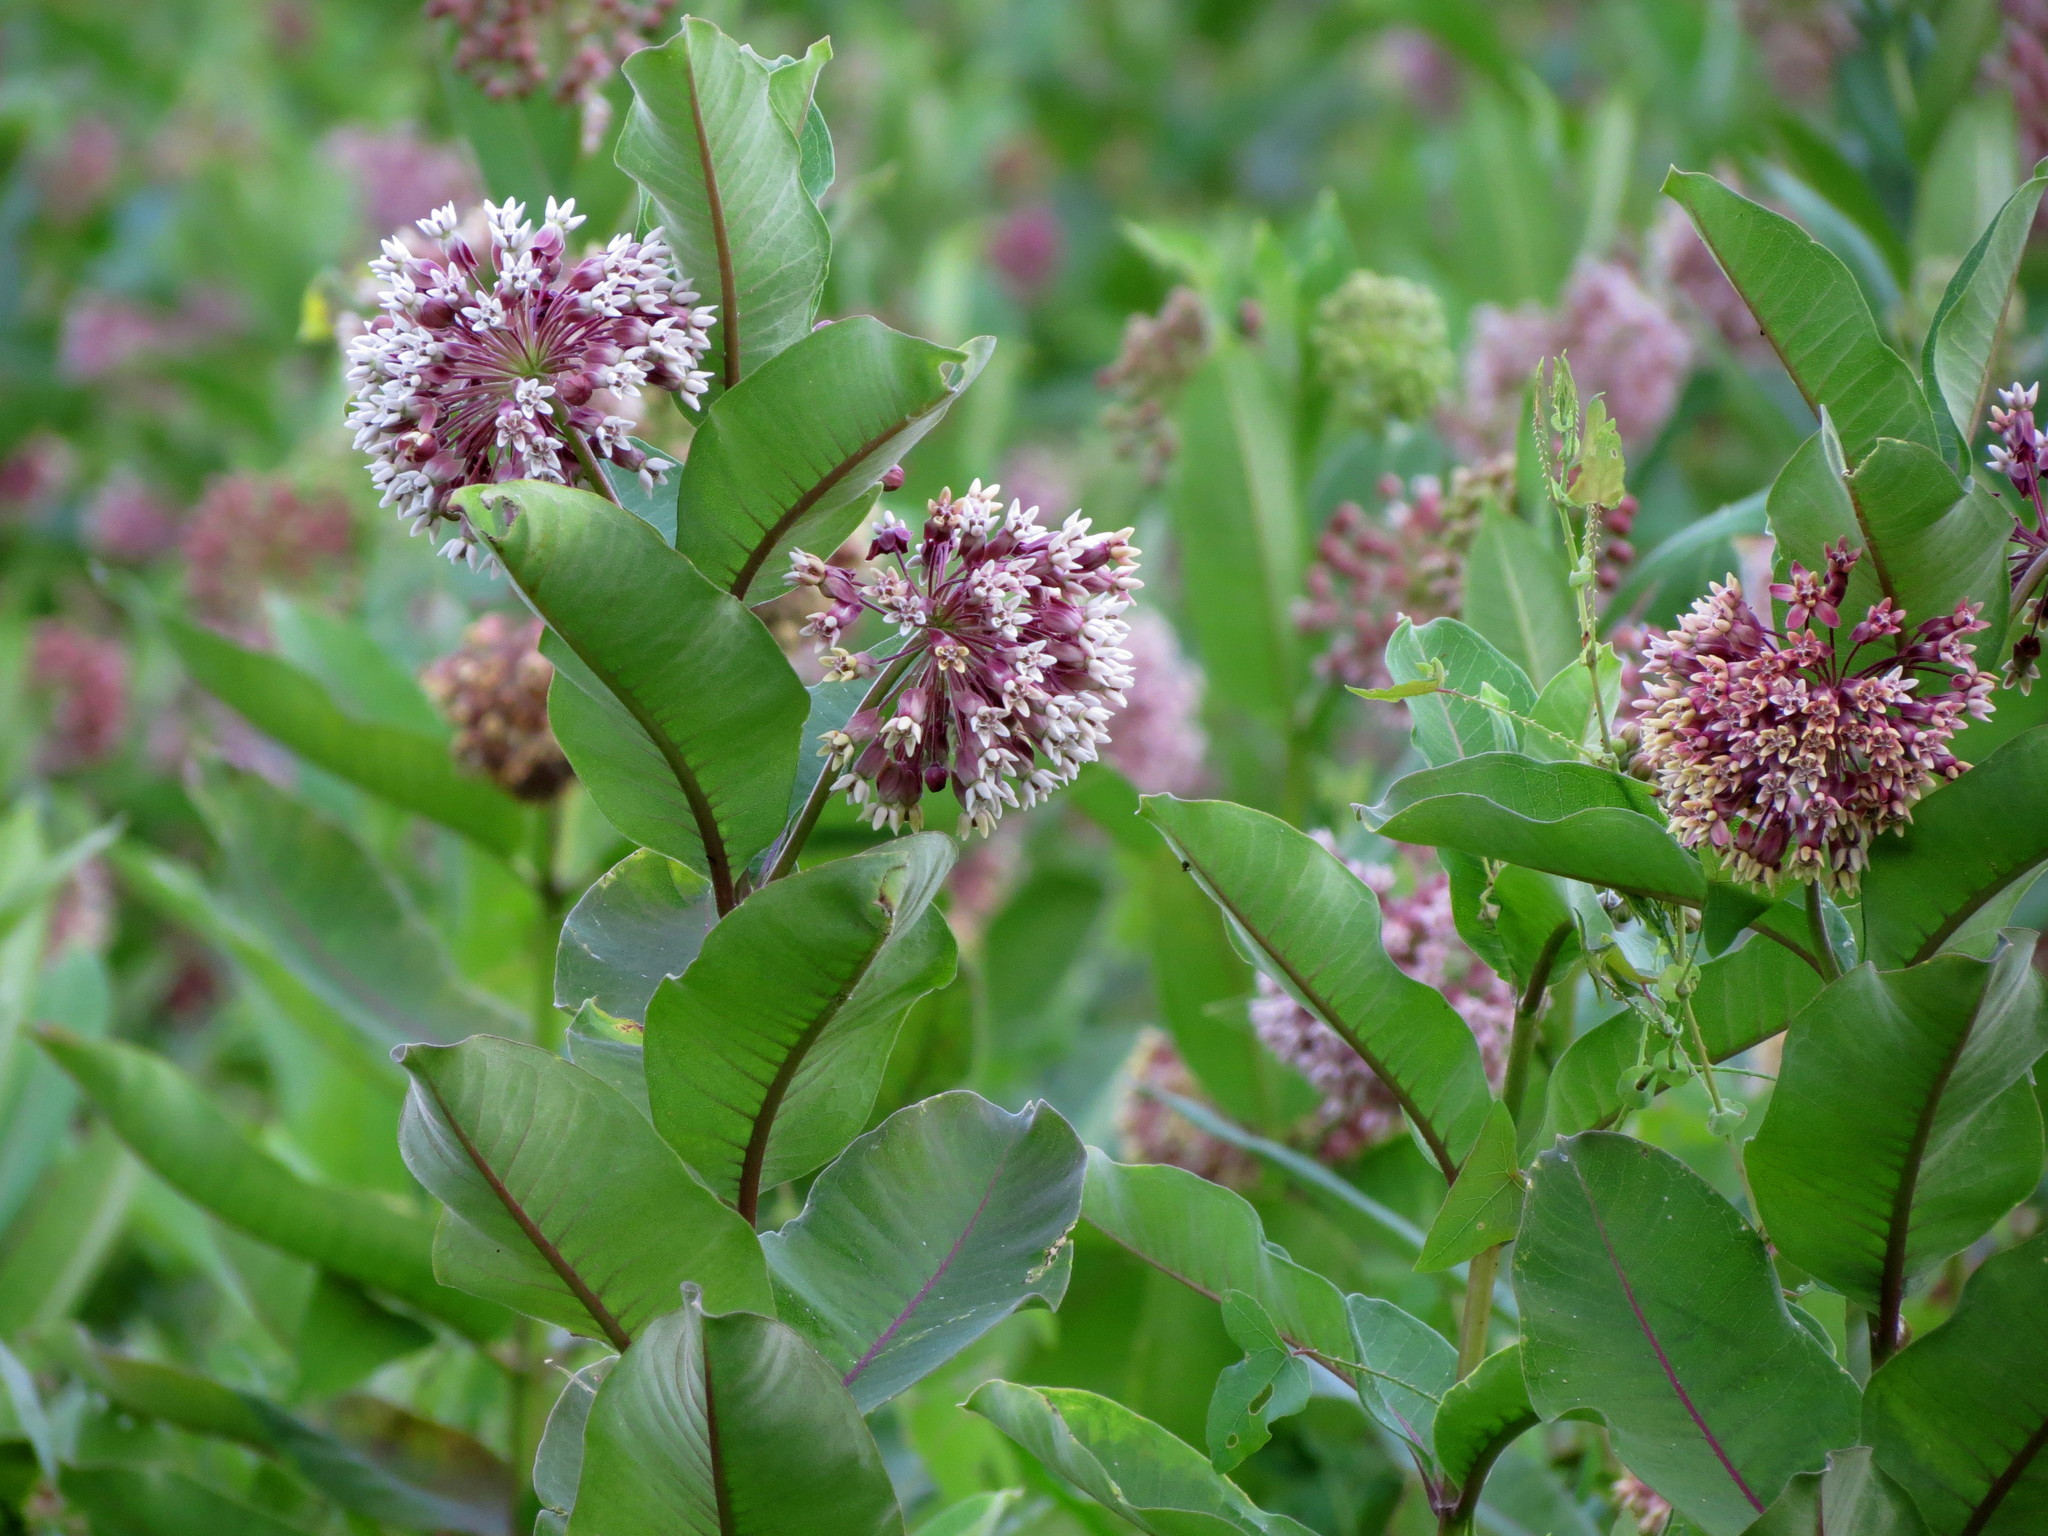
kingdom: Plantae
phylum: Tracheophyta
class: Magnoliopsida
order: Gentianales
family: Apocynaceae
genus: Asclepias
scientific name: Asclepias syriaca
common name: Common milkweed
